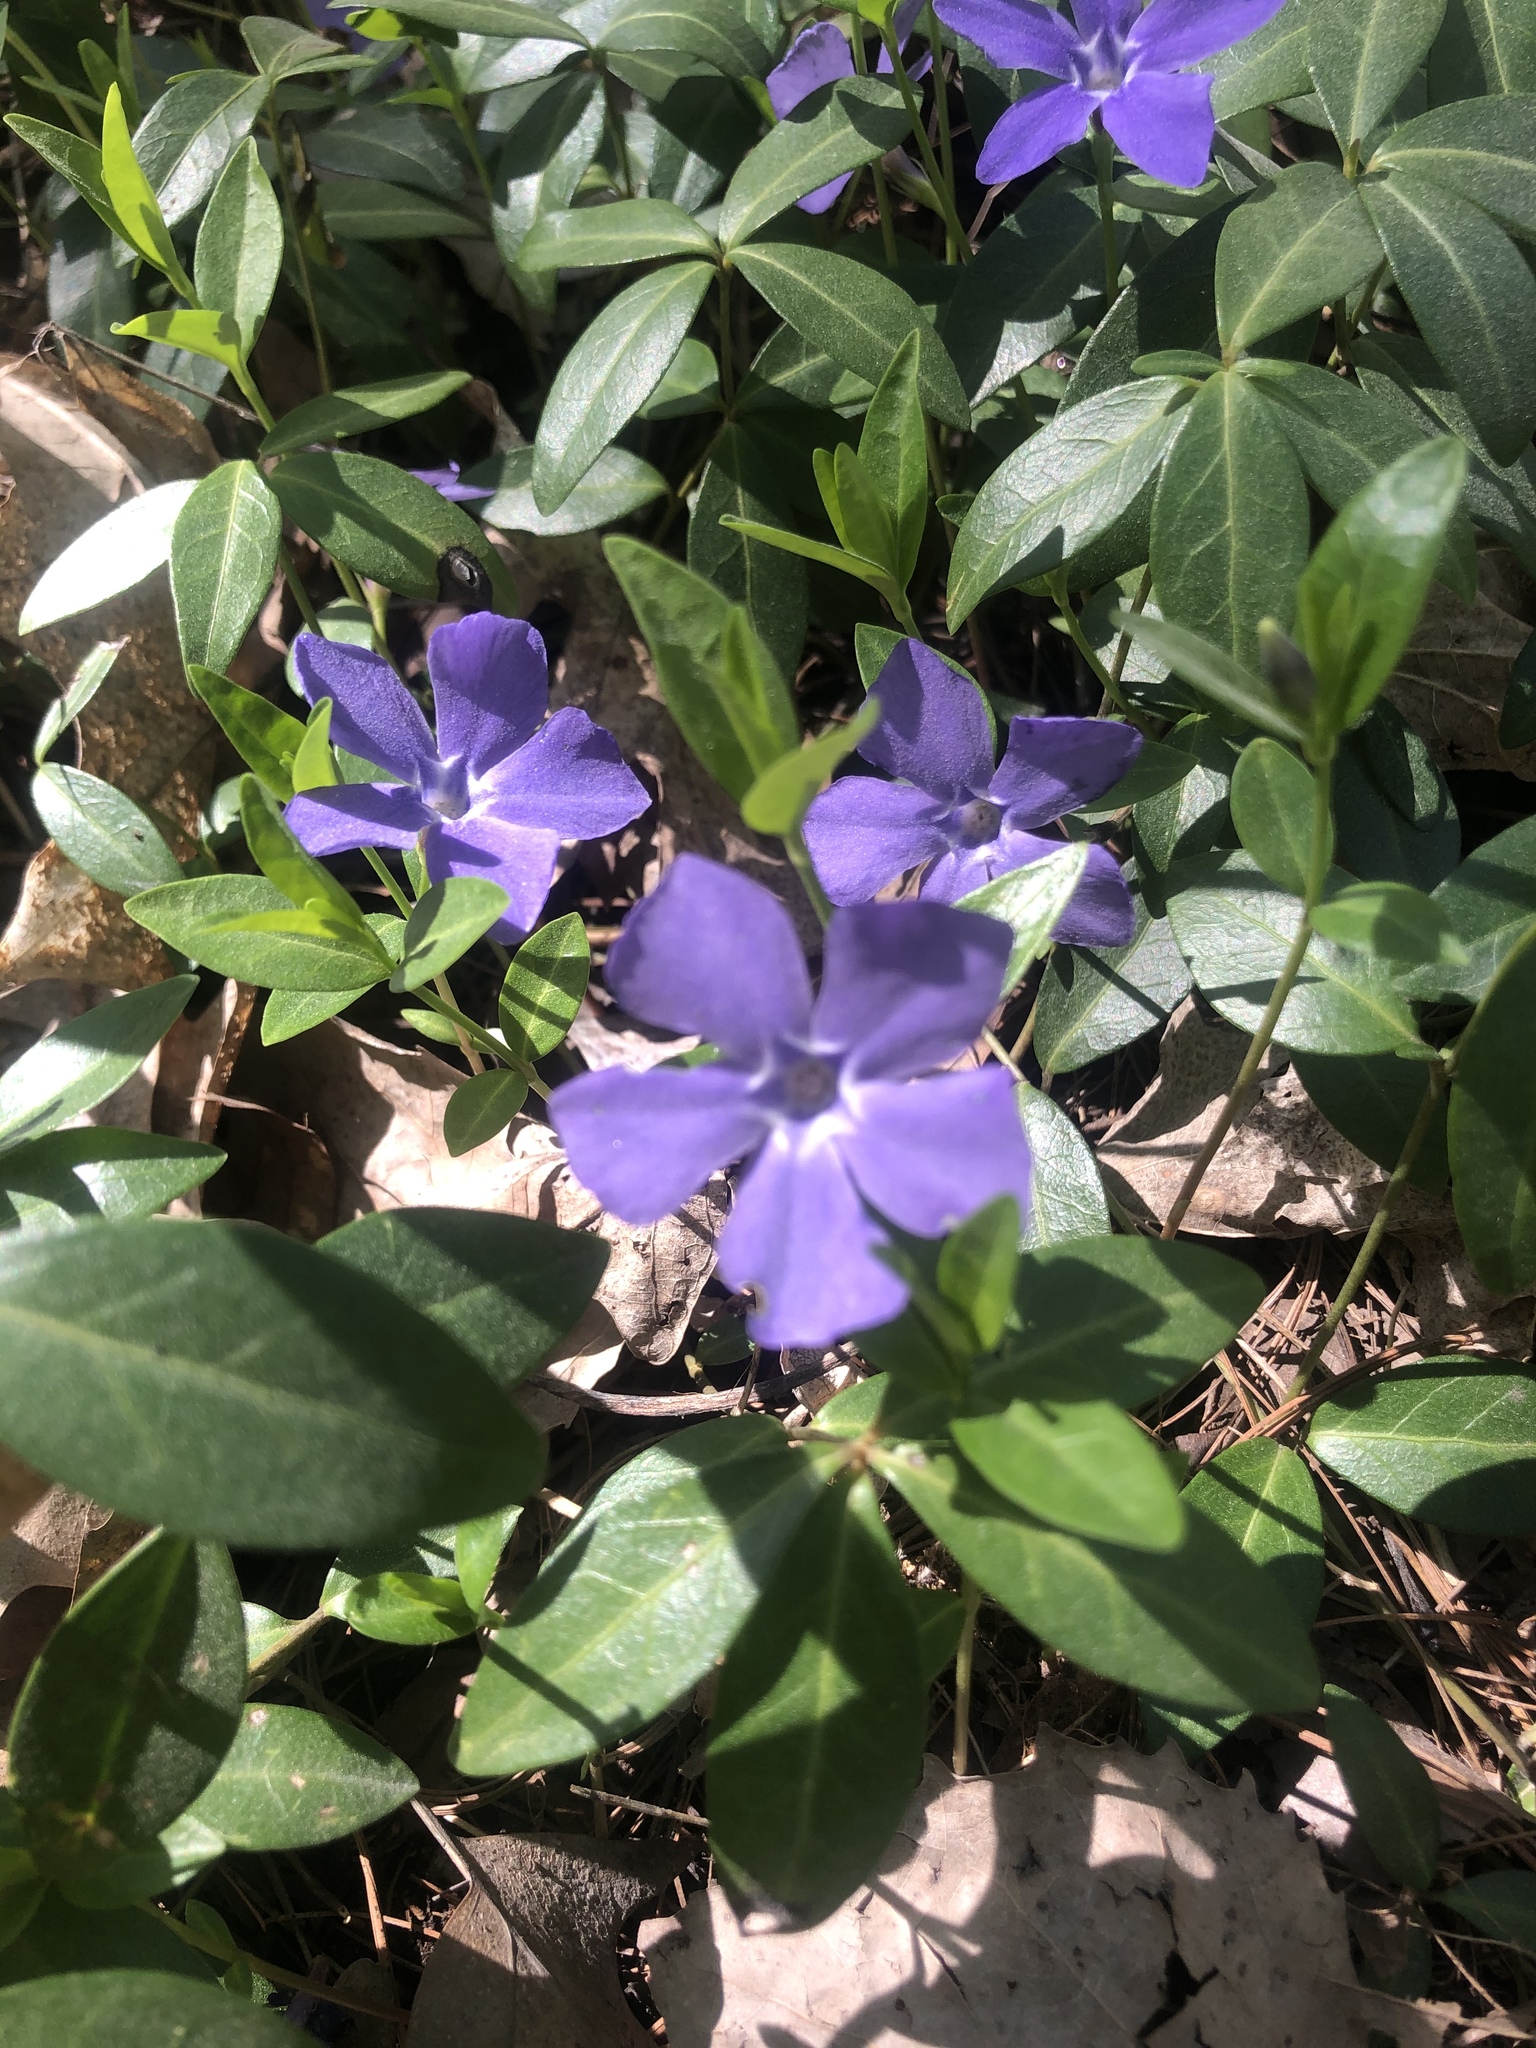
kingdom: Plantae
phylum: Tracheophyta
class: Magnoliopsida
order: Gentianales
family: Apocynaceae
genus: Vinca
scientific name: Vinca minor
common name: Lesser periwinkle
